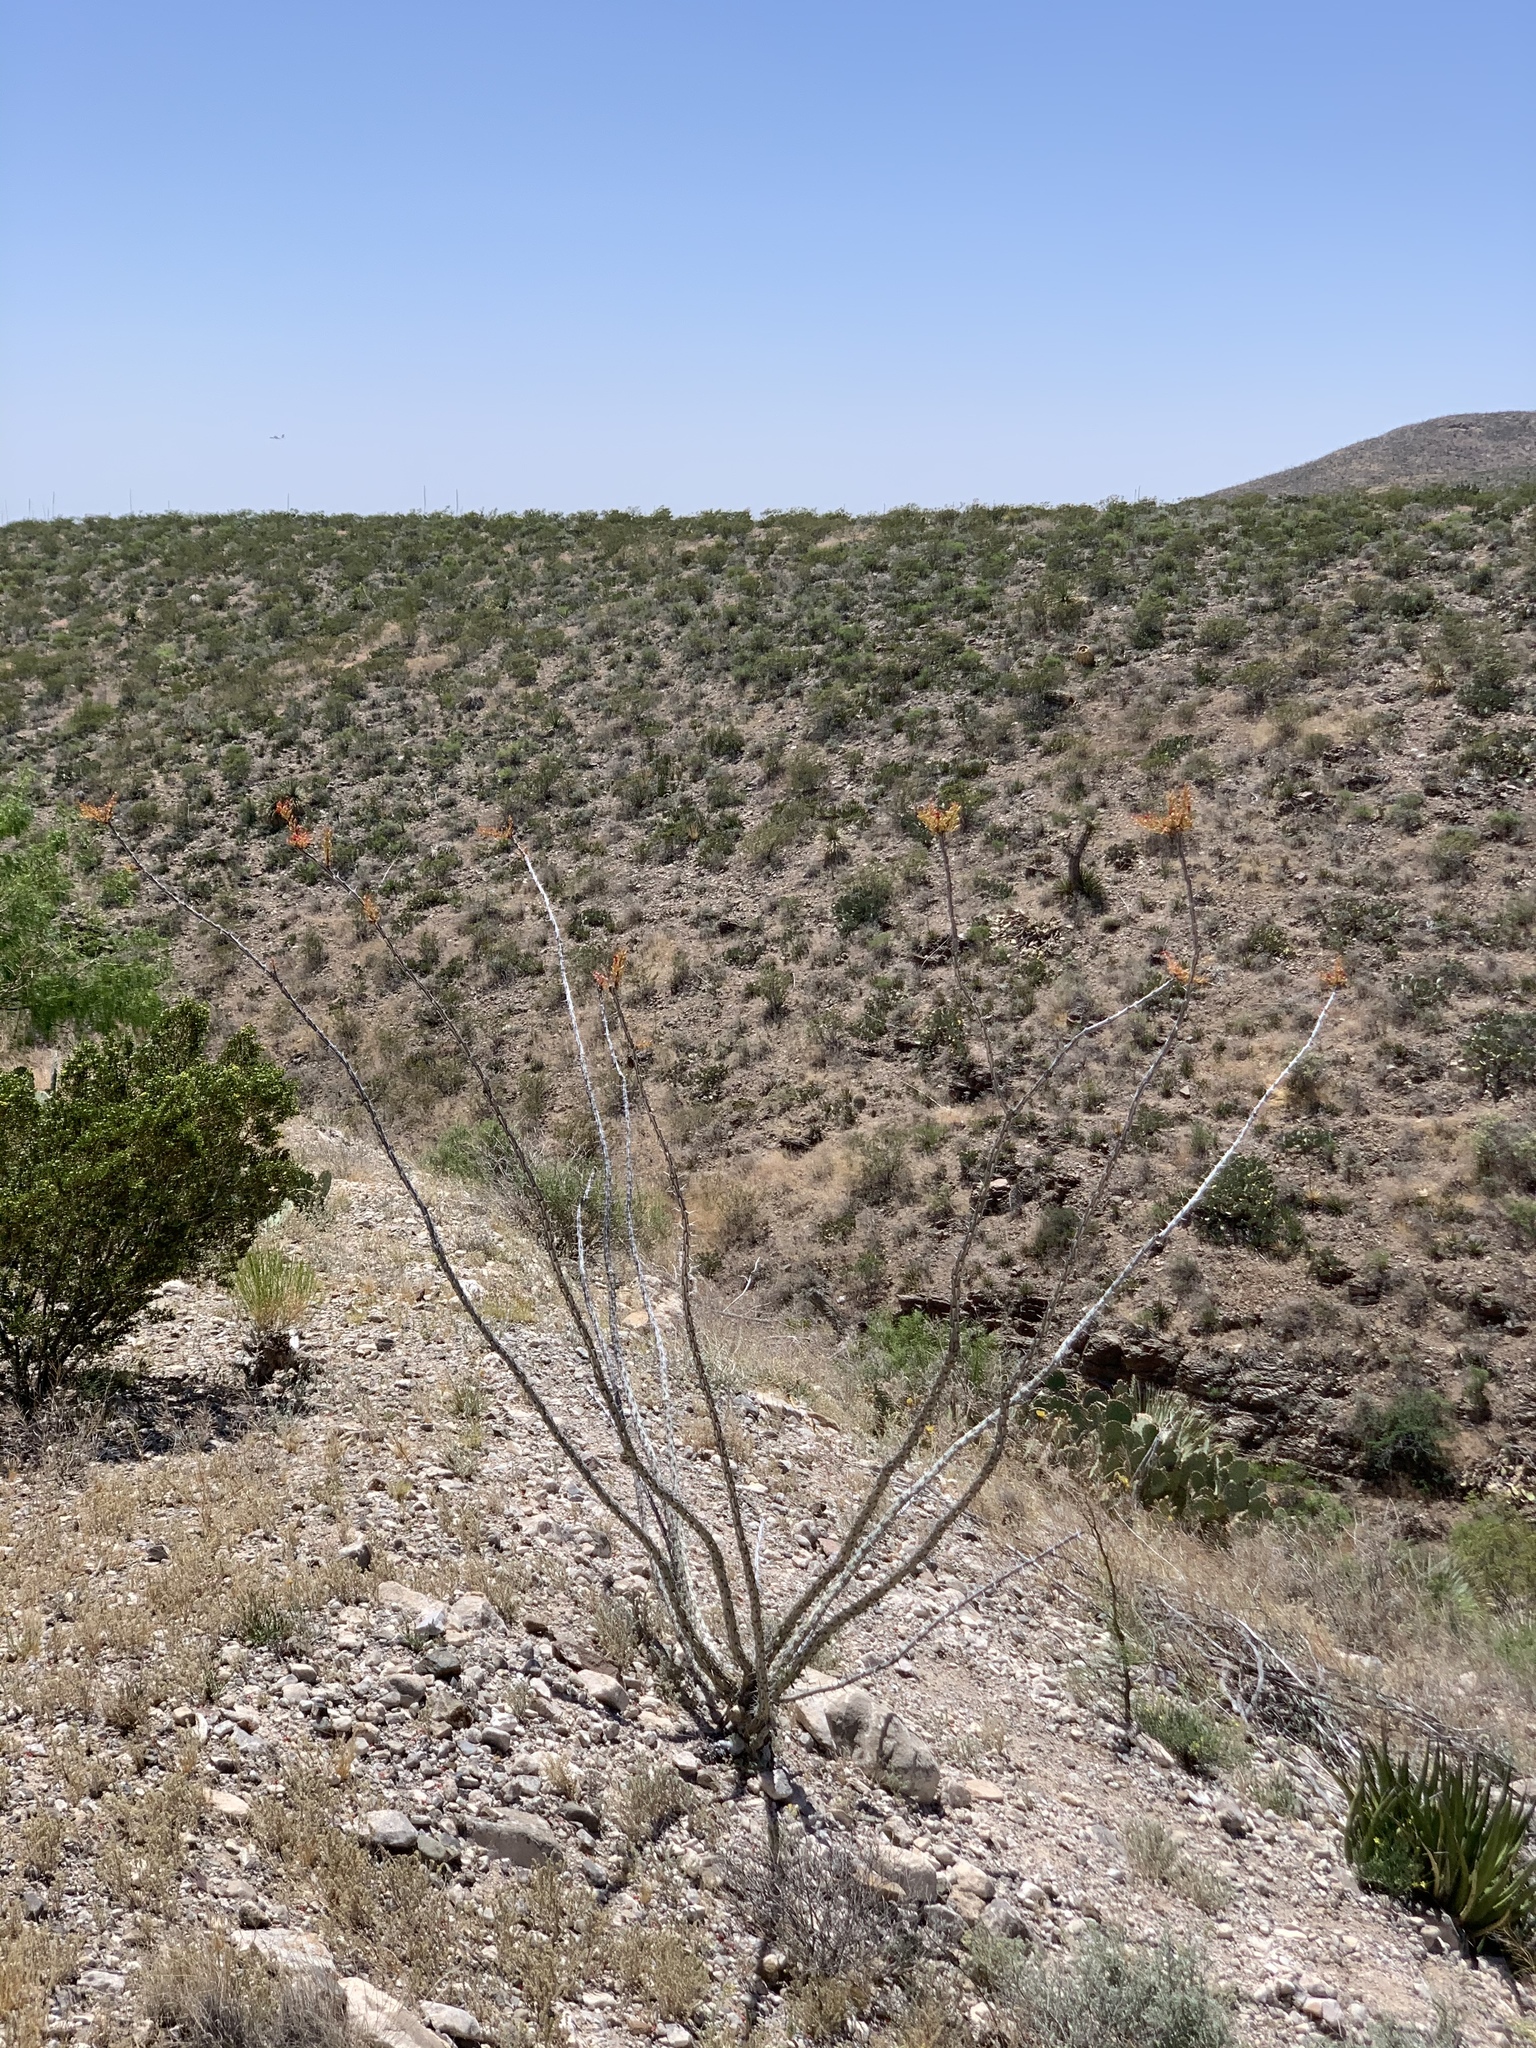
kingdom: Plantae
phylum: Tracheophyta
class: Magnoliopsida
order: Ericales
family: Fouquieriaceae
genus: Fouquieria
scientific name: Fouquieria splendens
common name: Vine-cactus
